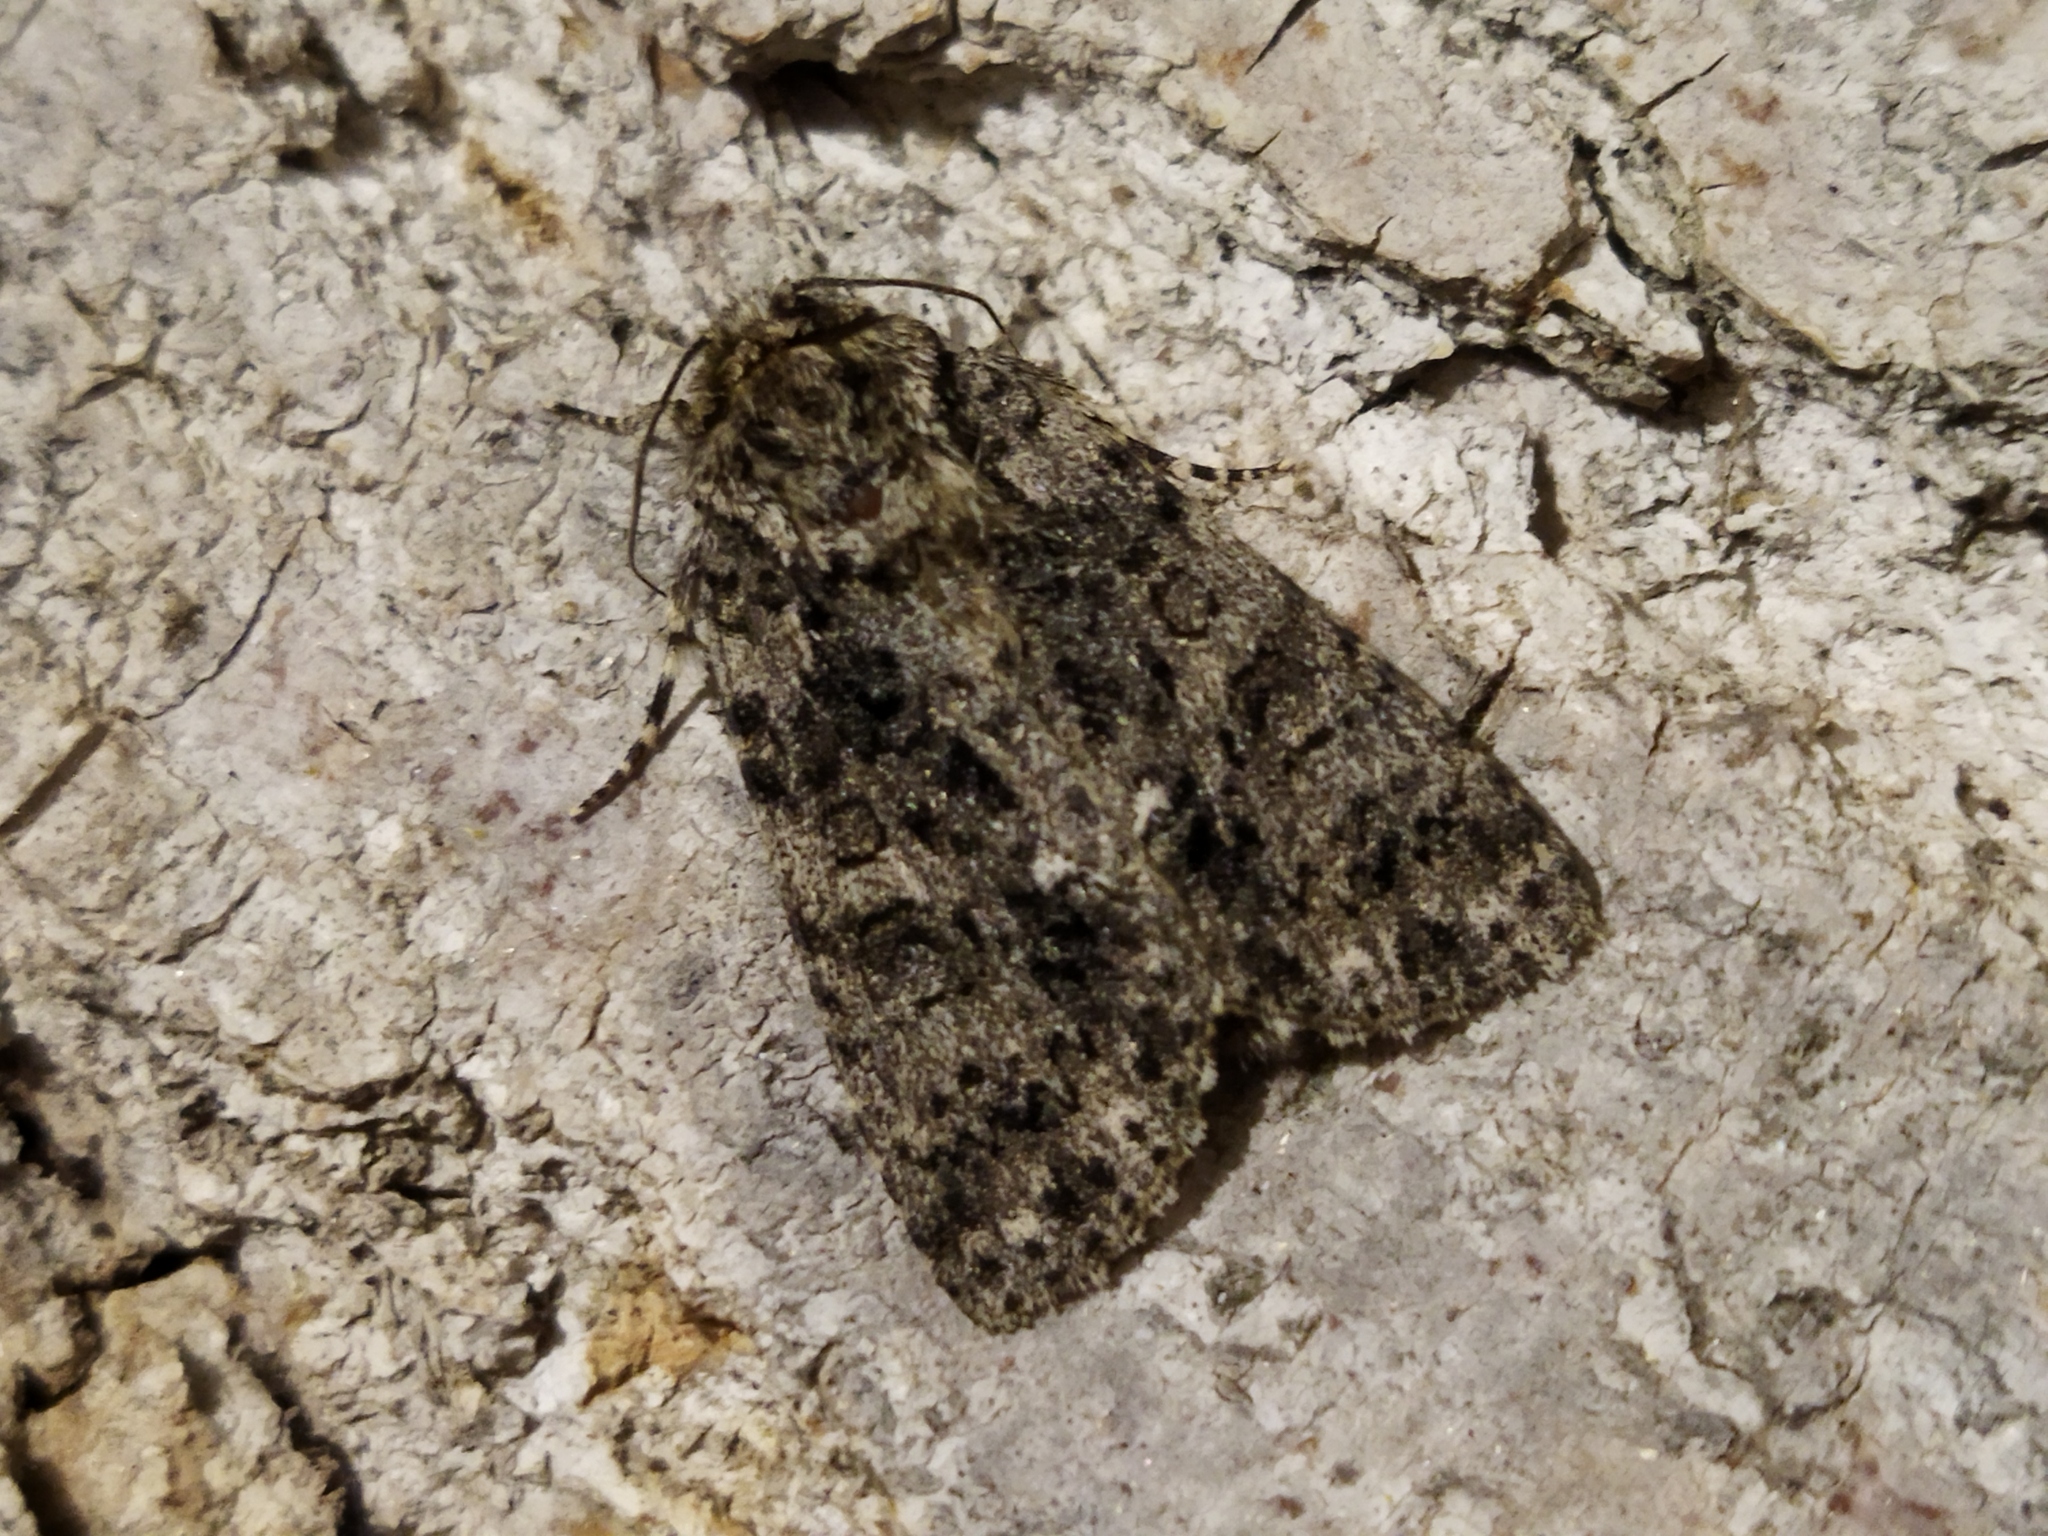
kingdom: Animalia
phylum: Arthropoda
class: Insecta
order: Lepidoptera
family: Noctuidae
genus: Acronicta
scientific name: Acronicta rumicis
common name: Knot grass
